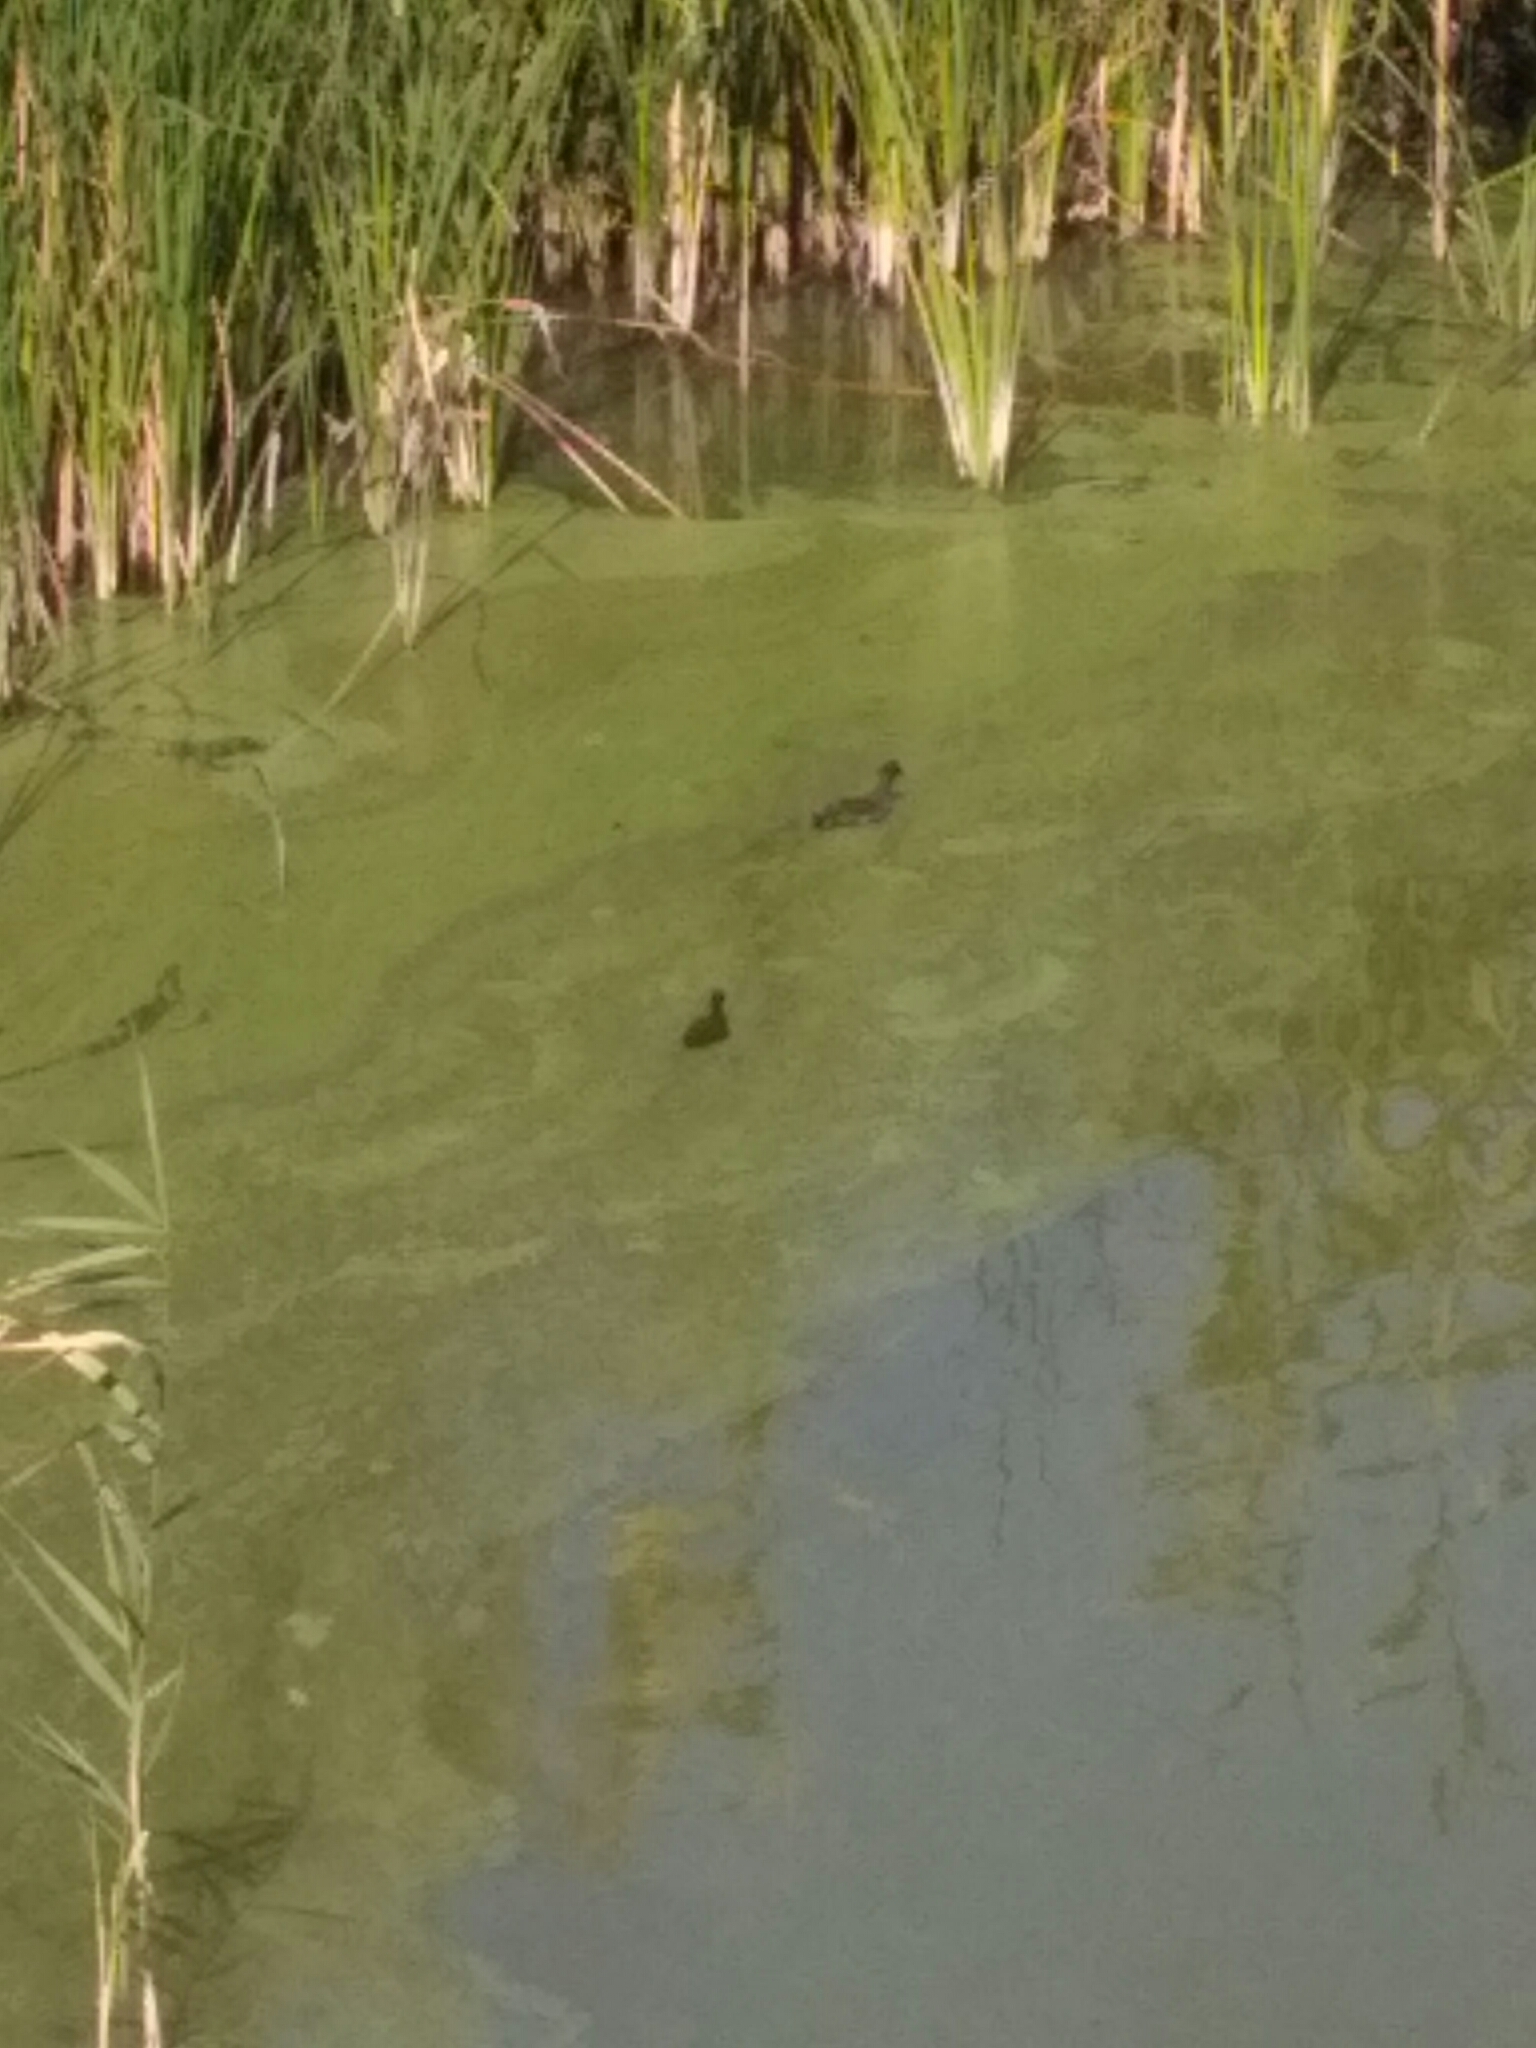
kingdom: Animalia
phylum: Chordata
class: Aves
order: Gruiformes
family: Rallidae
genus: Gallinula
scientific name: Gallinula chloropus
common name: Common moorhen
